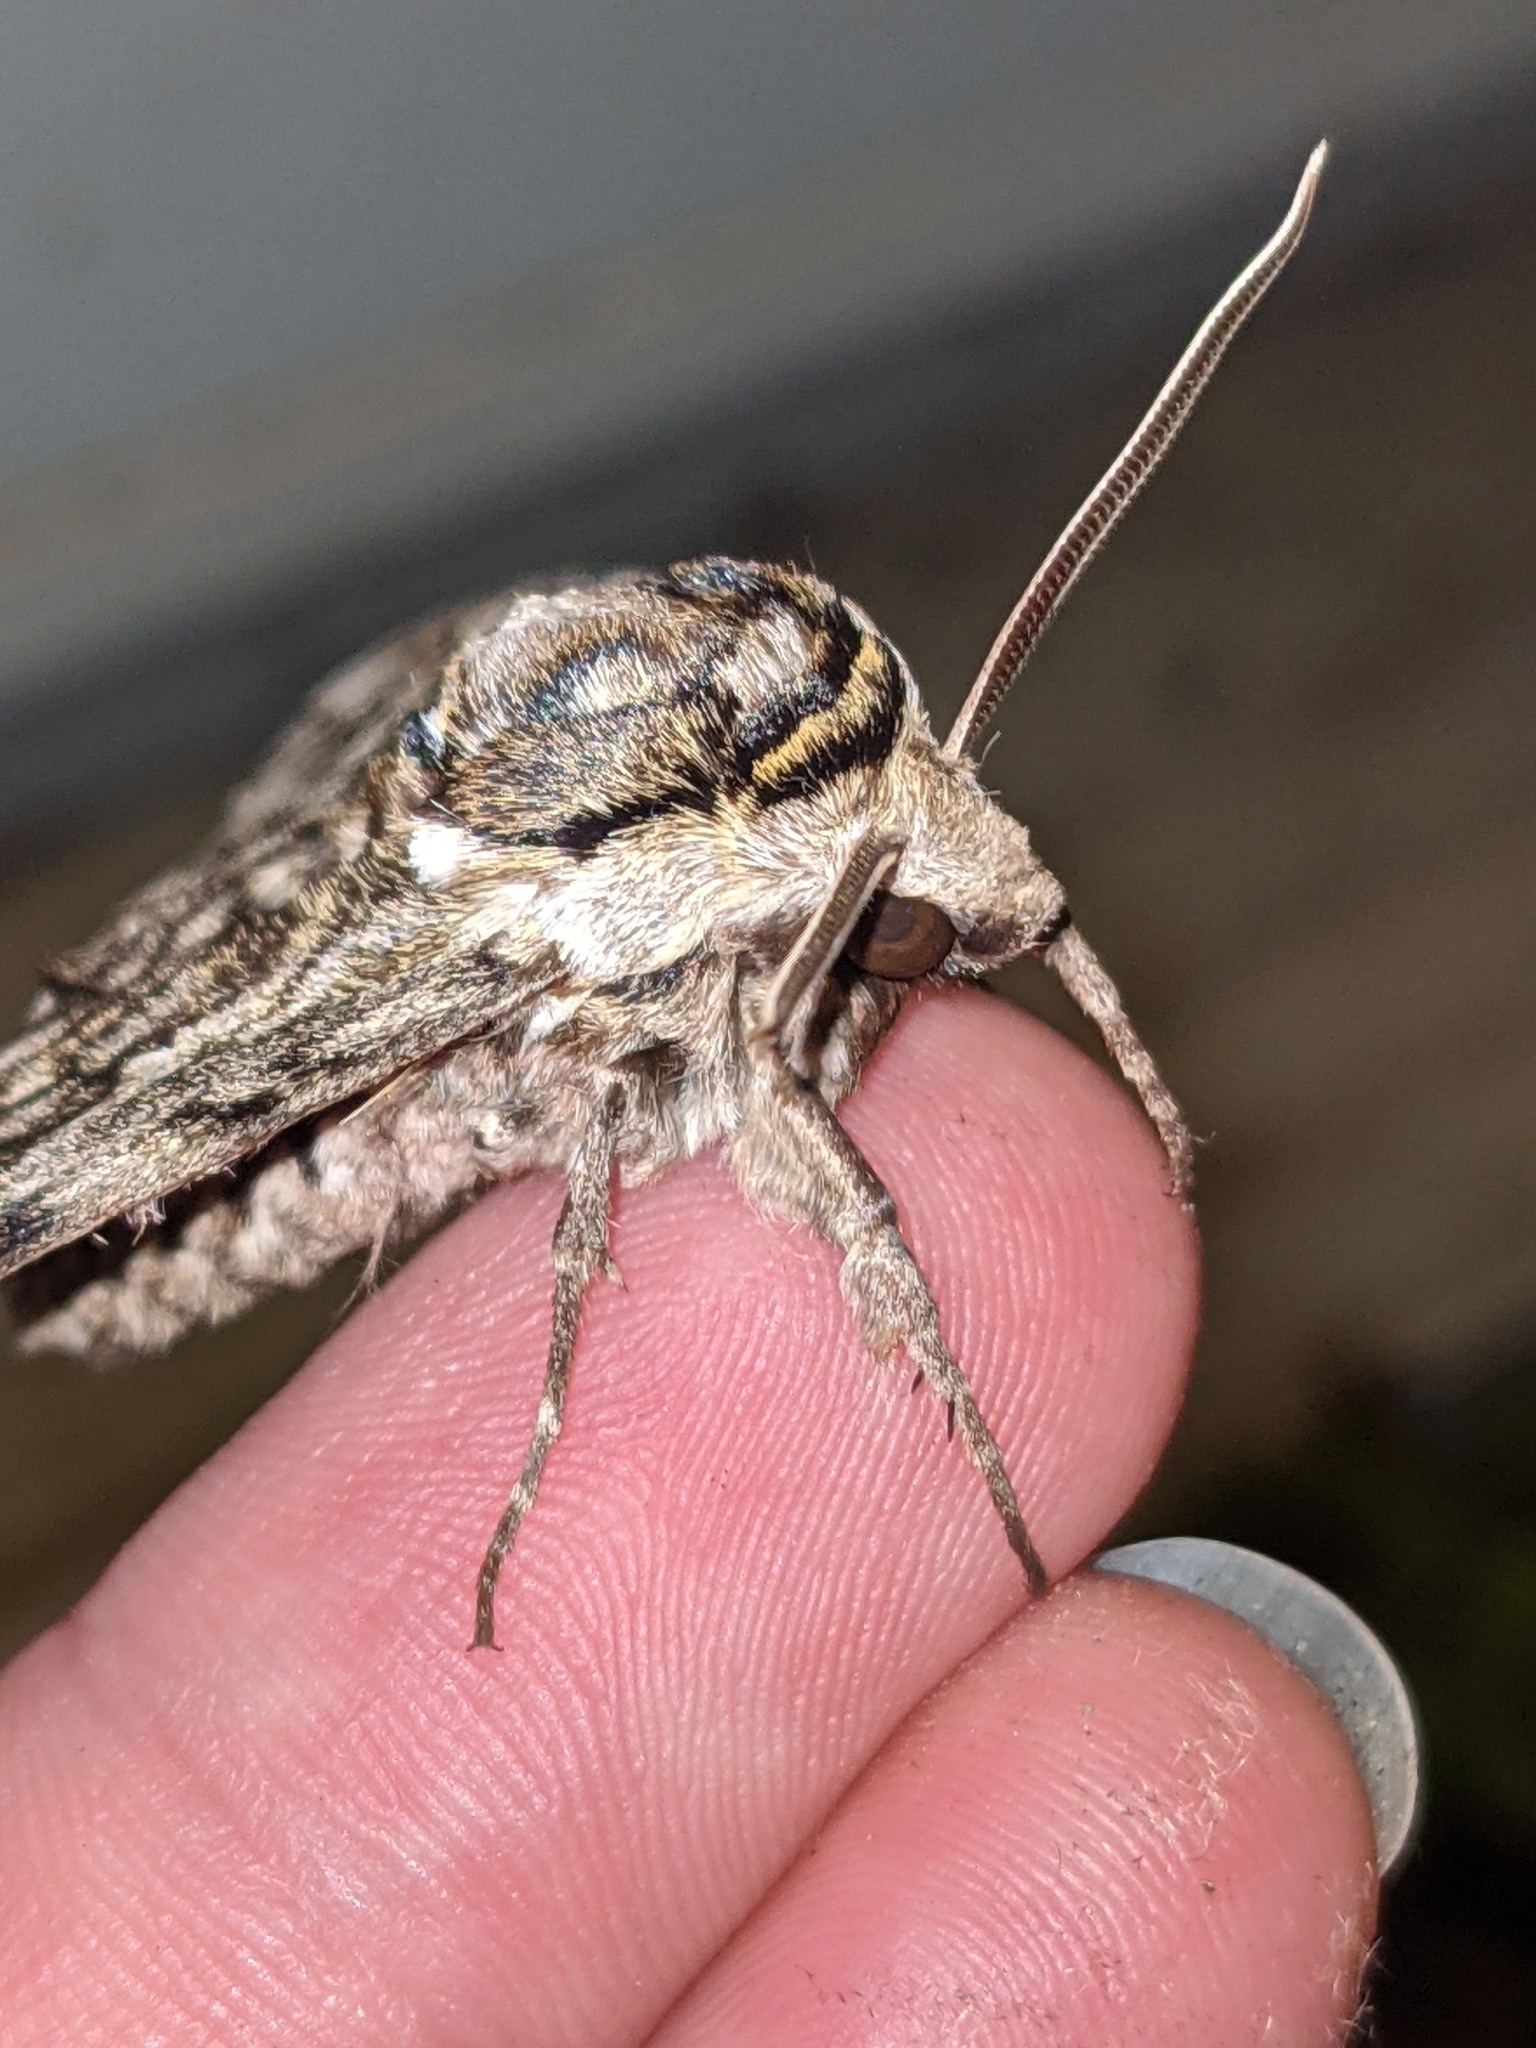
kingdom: Animalia
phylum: Arthropoda
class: Insecta
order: Lepidoptera
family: Sphingidae
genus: Ceratomia
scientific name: Ceratomia undulosa
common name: Waved sphinx
